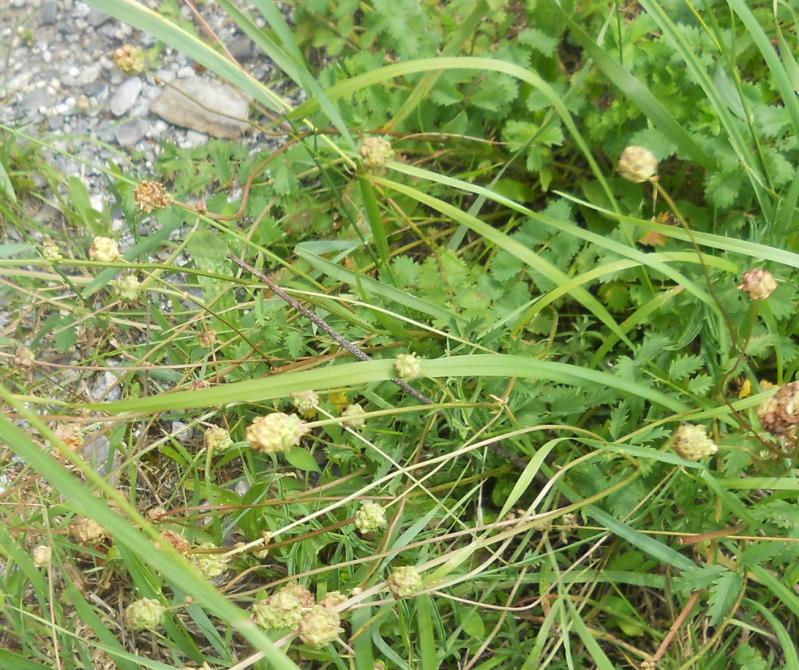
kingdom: Plantae
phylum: Tracheophyta
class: Magnoliopsida
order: Rosales
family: Rosaceae
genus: Poterium
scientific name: Poterium sanguisorba
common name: Salad burnet
